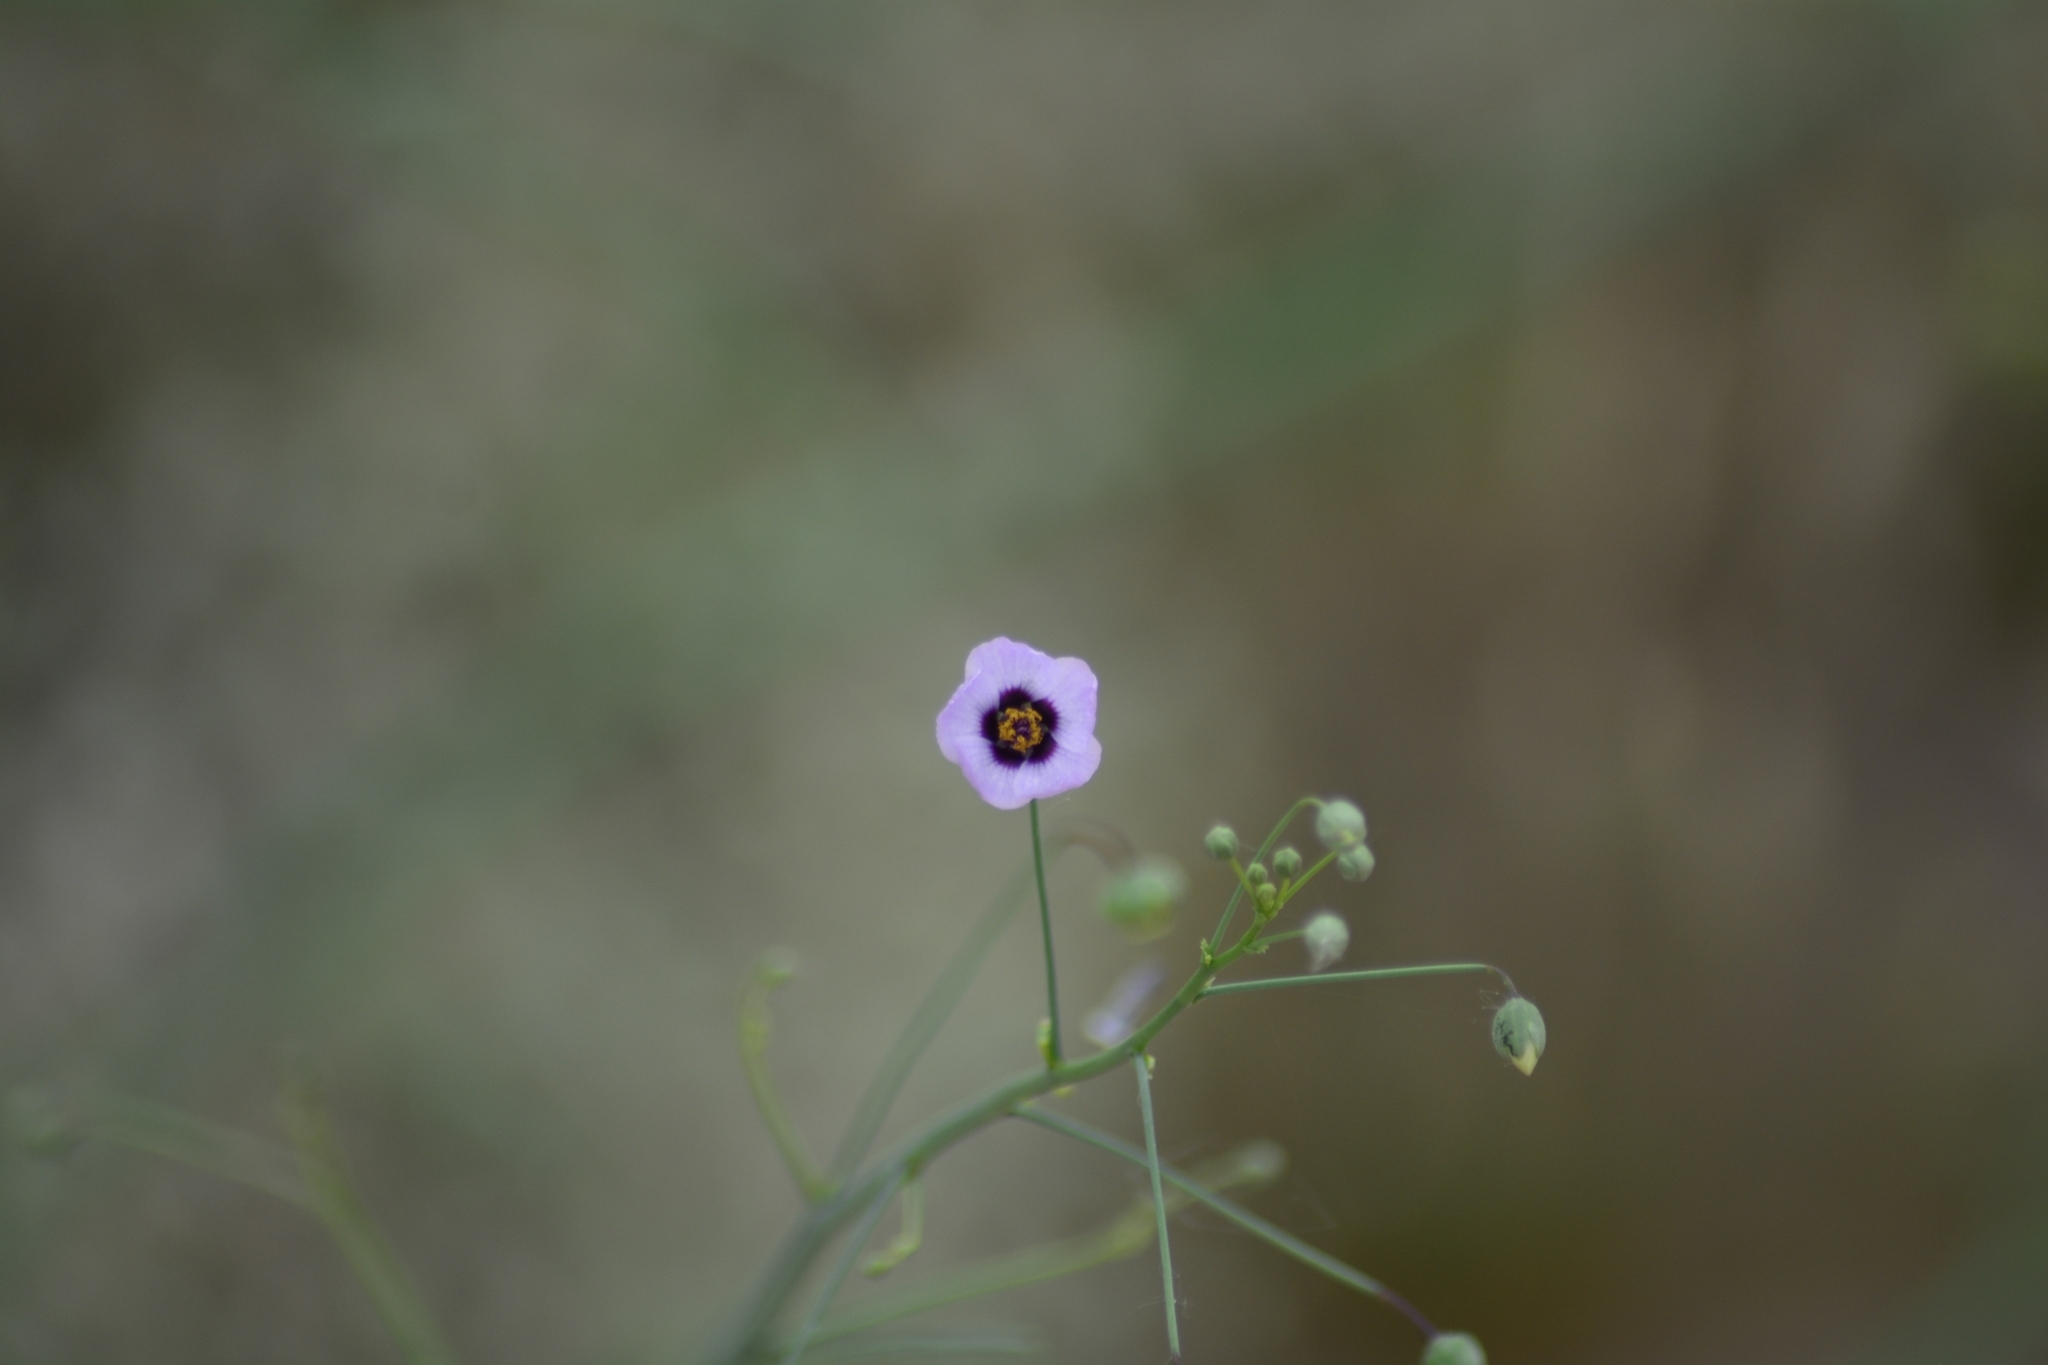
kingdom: Plantae
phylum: Tracheophyta
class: Magnoliopsida
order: Malvales
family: Malvaceae
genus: Lecanophora
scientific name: Lecanophora ecristata
